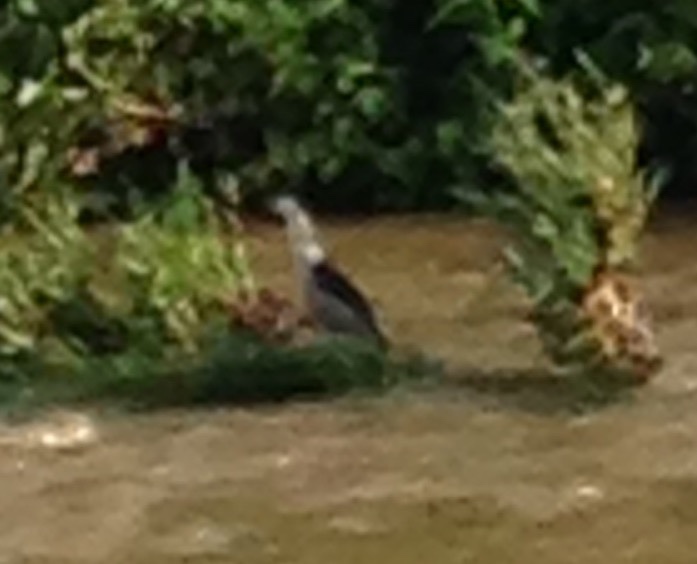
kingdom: Animalia
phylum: Chordata
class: Aves
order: Pelecaniformes
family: Ardeidae
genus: Nycticorax
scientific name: Nycticorax nycticorax
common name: Black-crowned night heron
